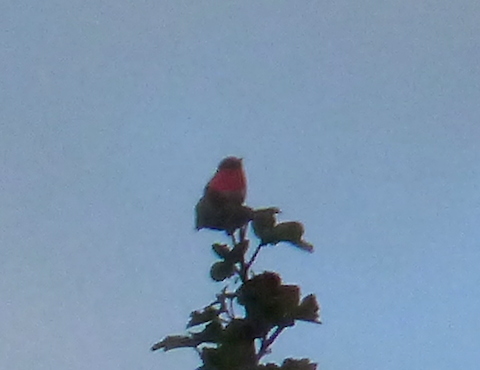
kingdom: Animalia
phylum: Chordata
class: Aves
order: Apodiformes
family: Trochilidae
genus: Selasphorus
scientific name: Selasphorus sasin
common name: Allen's hummingbird
